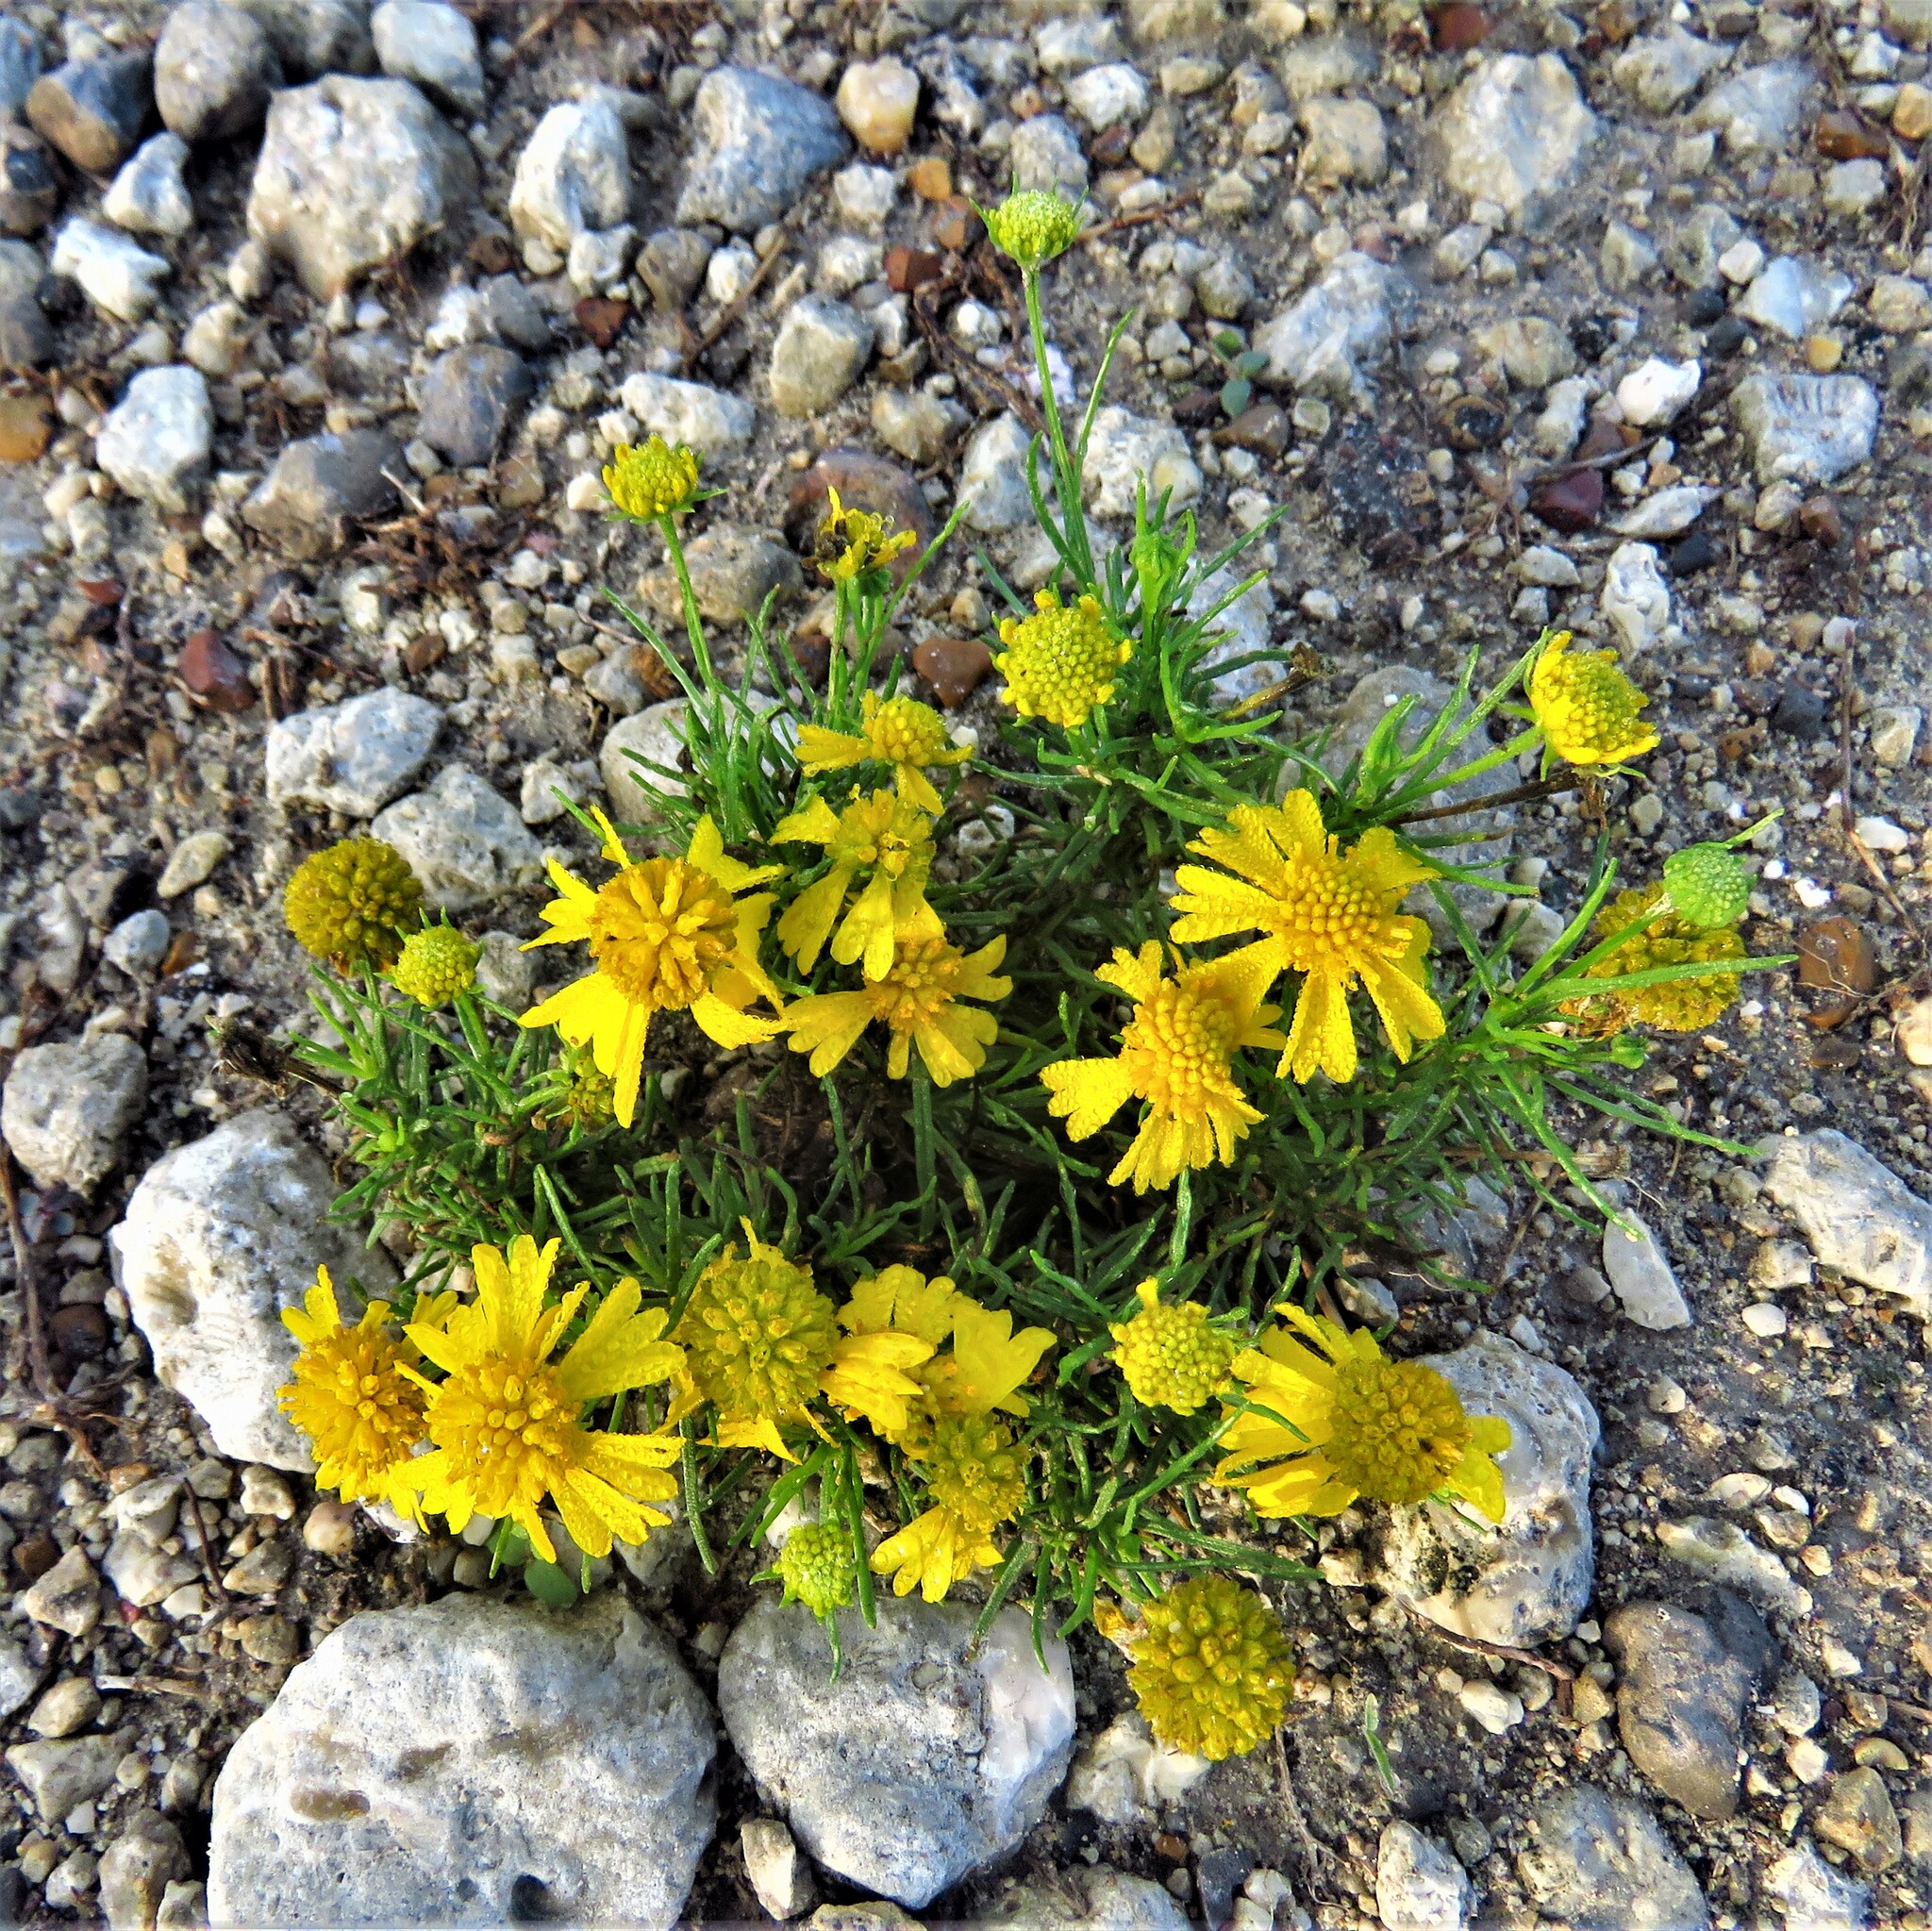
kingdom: Plantae
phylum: Tracheophyta
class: Magnoliopsida
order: Asterales
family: Asteraceae
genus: Helenium
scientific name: Helenium amarum
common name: Bitter sneezeweed
